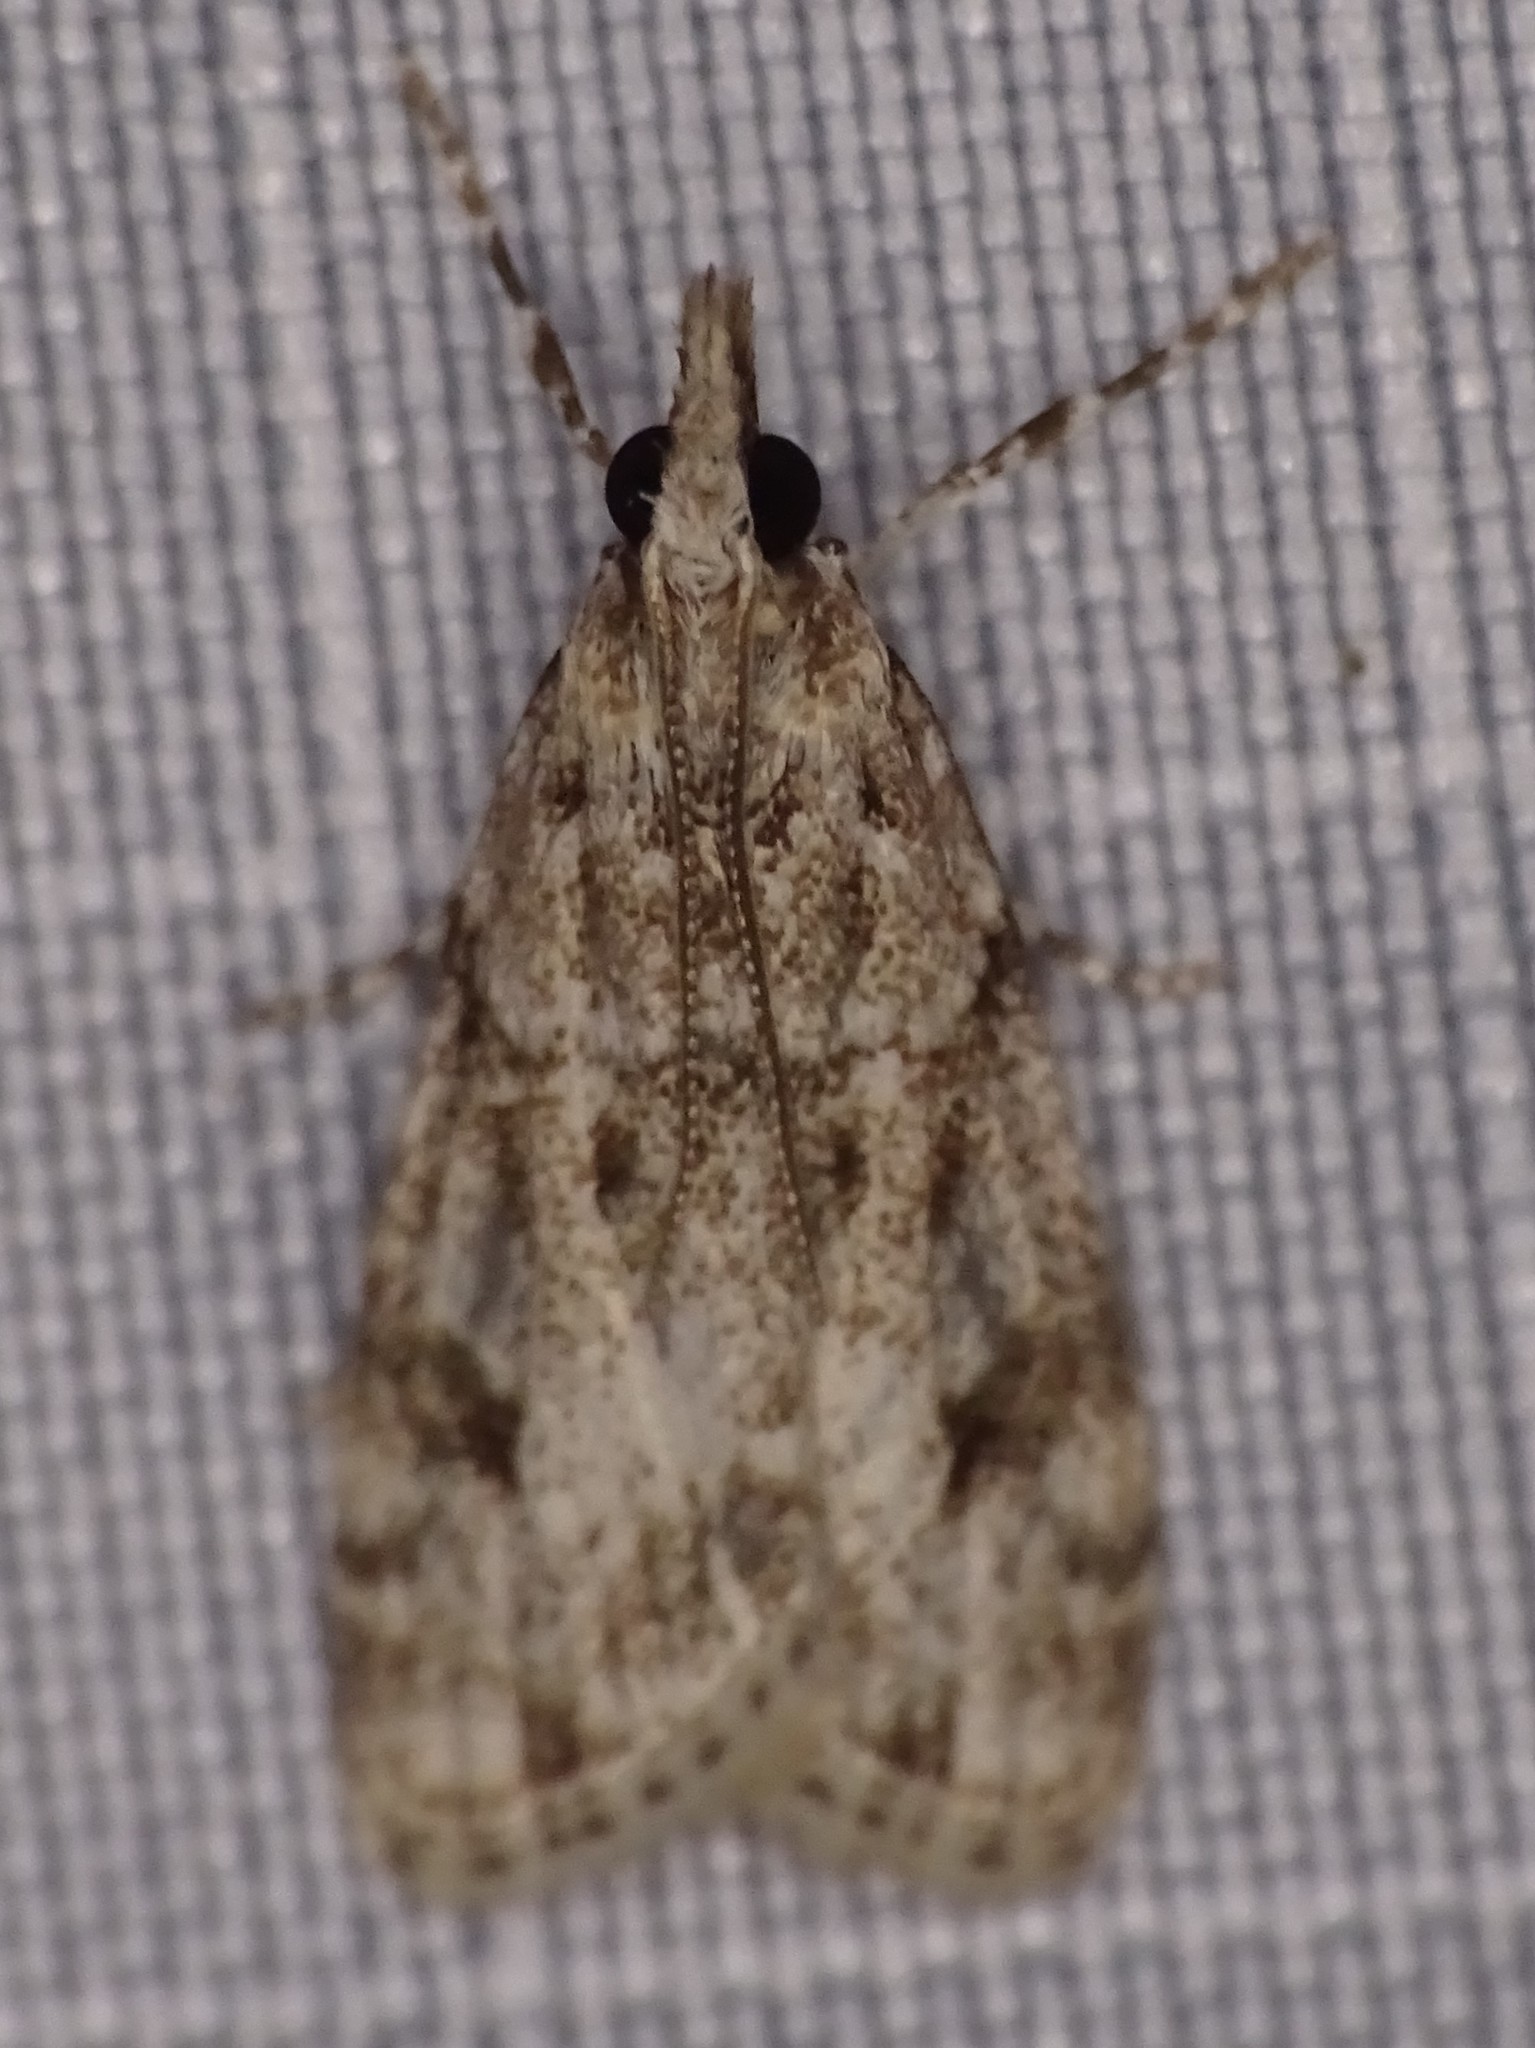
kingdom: Animalia
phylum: Arthropoda
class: Insecta
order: Lepidoptera
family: Crambidae
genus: Eudonia
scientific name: Eudonia heterosalis
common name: Mcdunnough's eudonia
